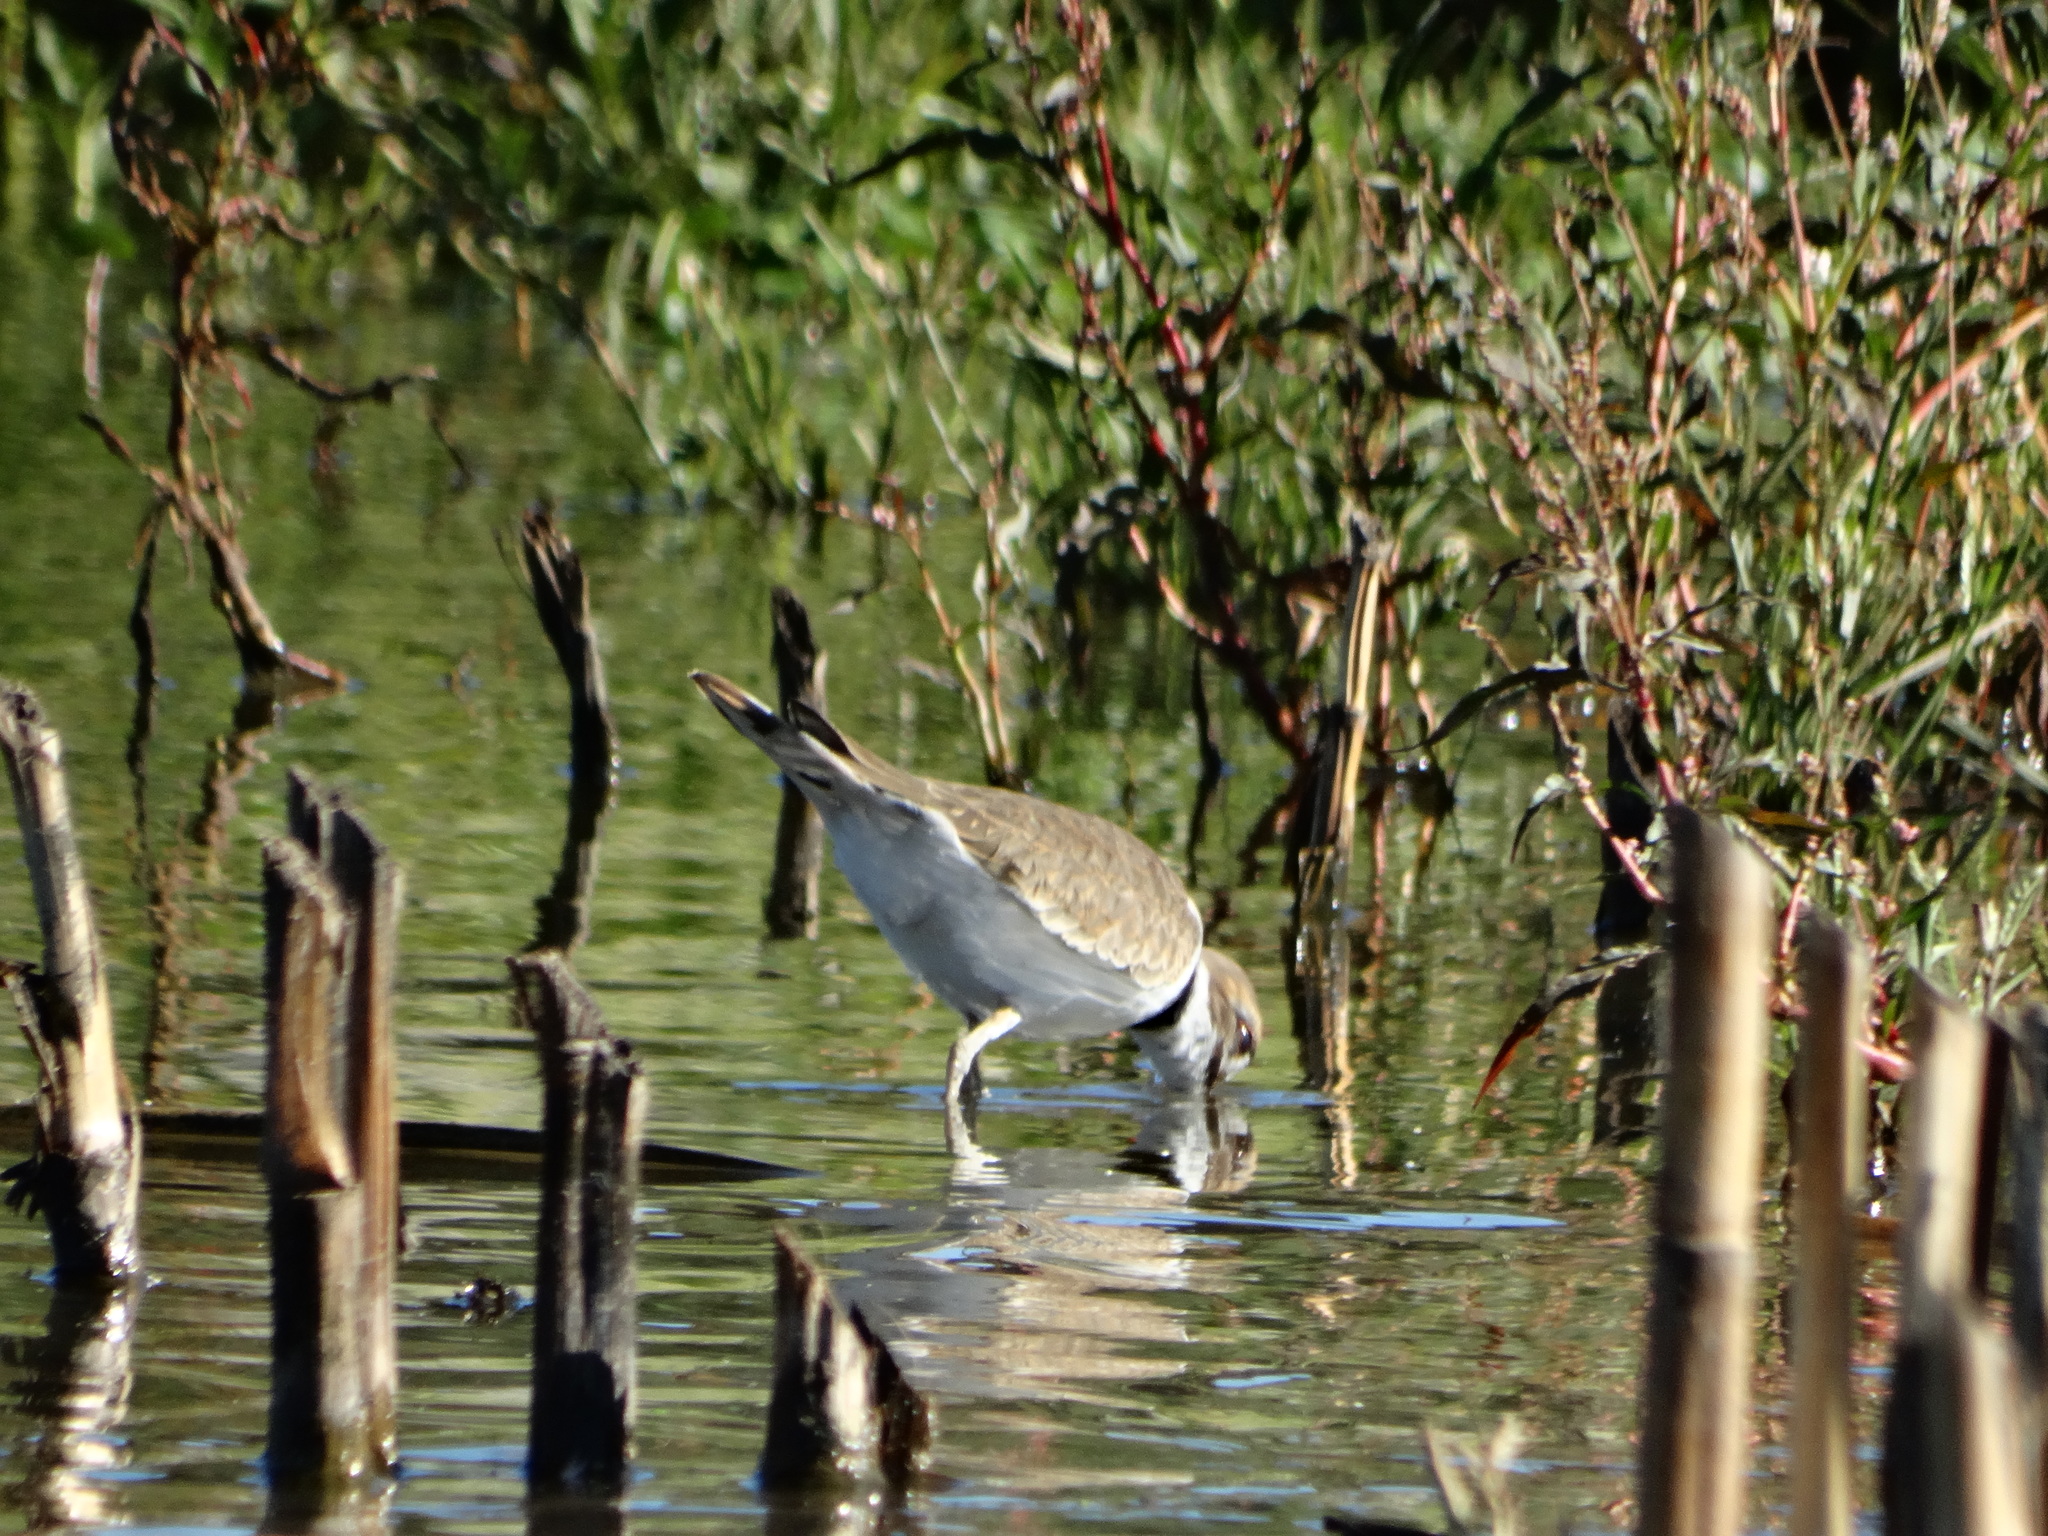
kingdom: Animalia
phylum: Chordata
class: Aves
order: Charadriiformes
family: Charadriidae
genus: Charadrius
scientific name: Charadrius vociferus
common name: Killdeer
